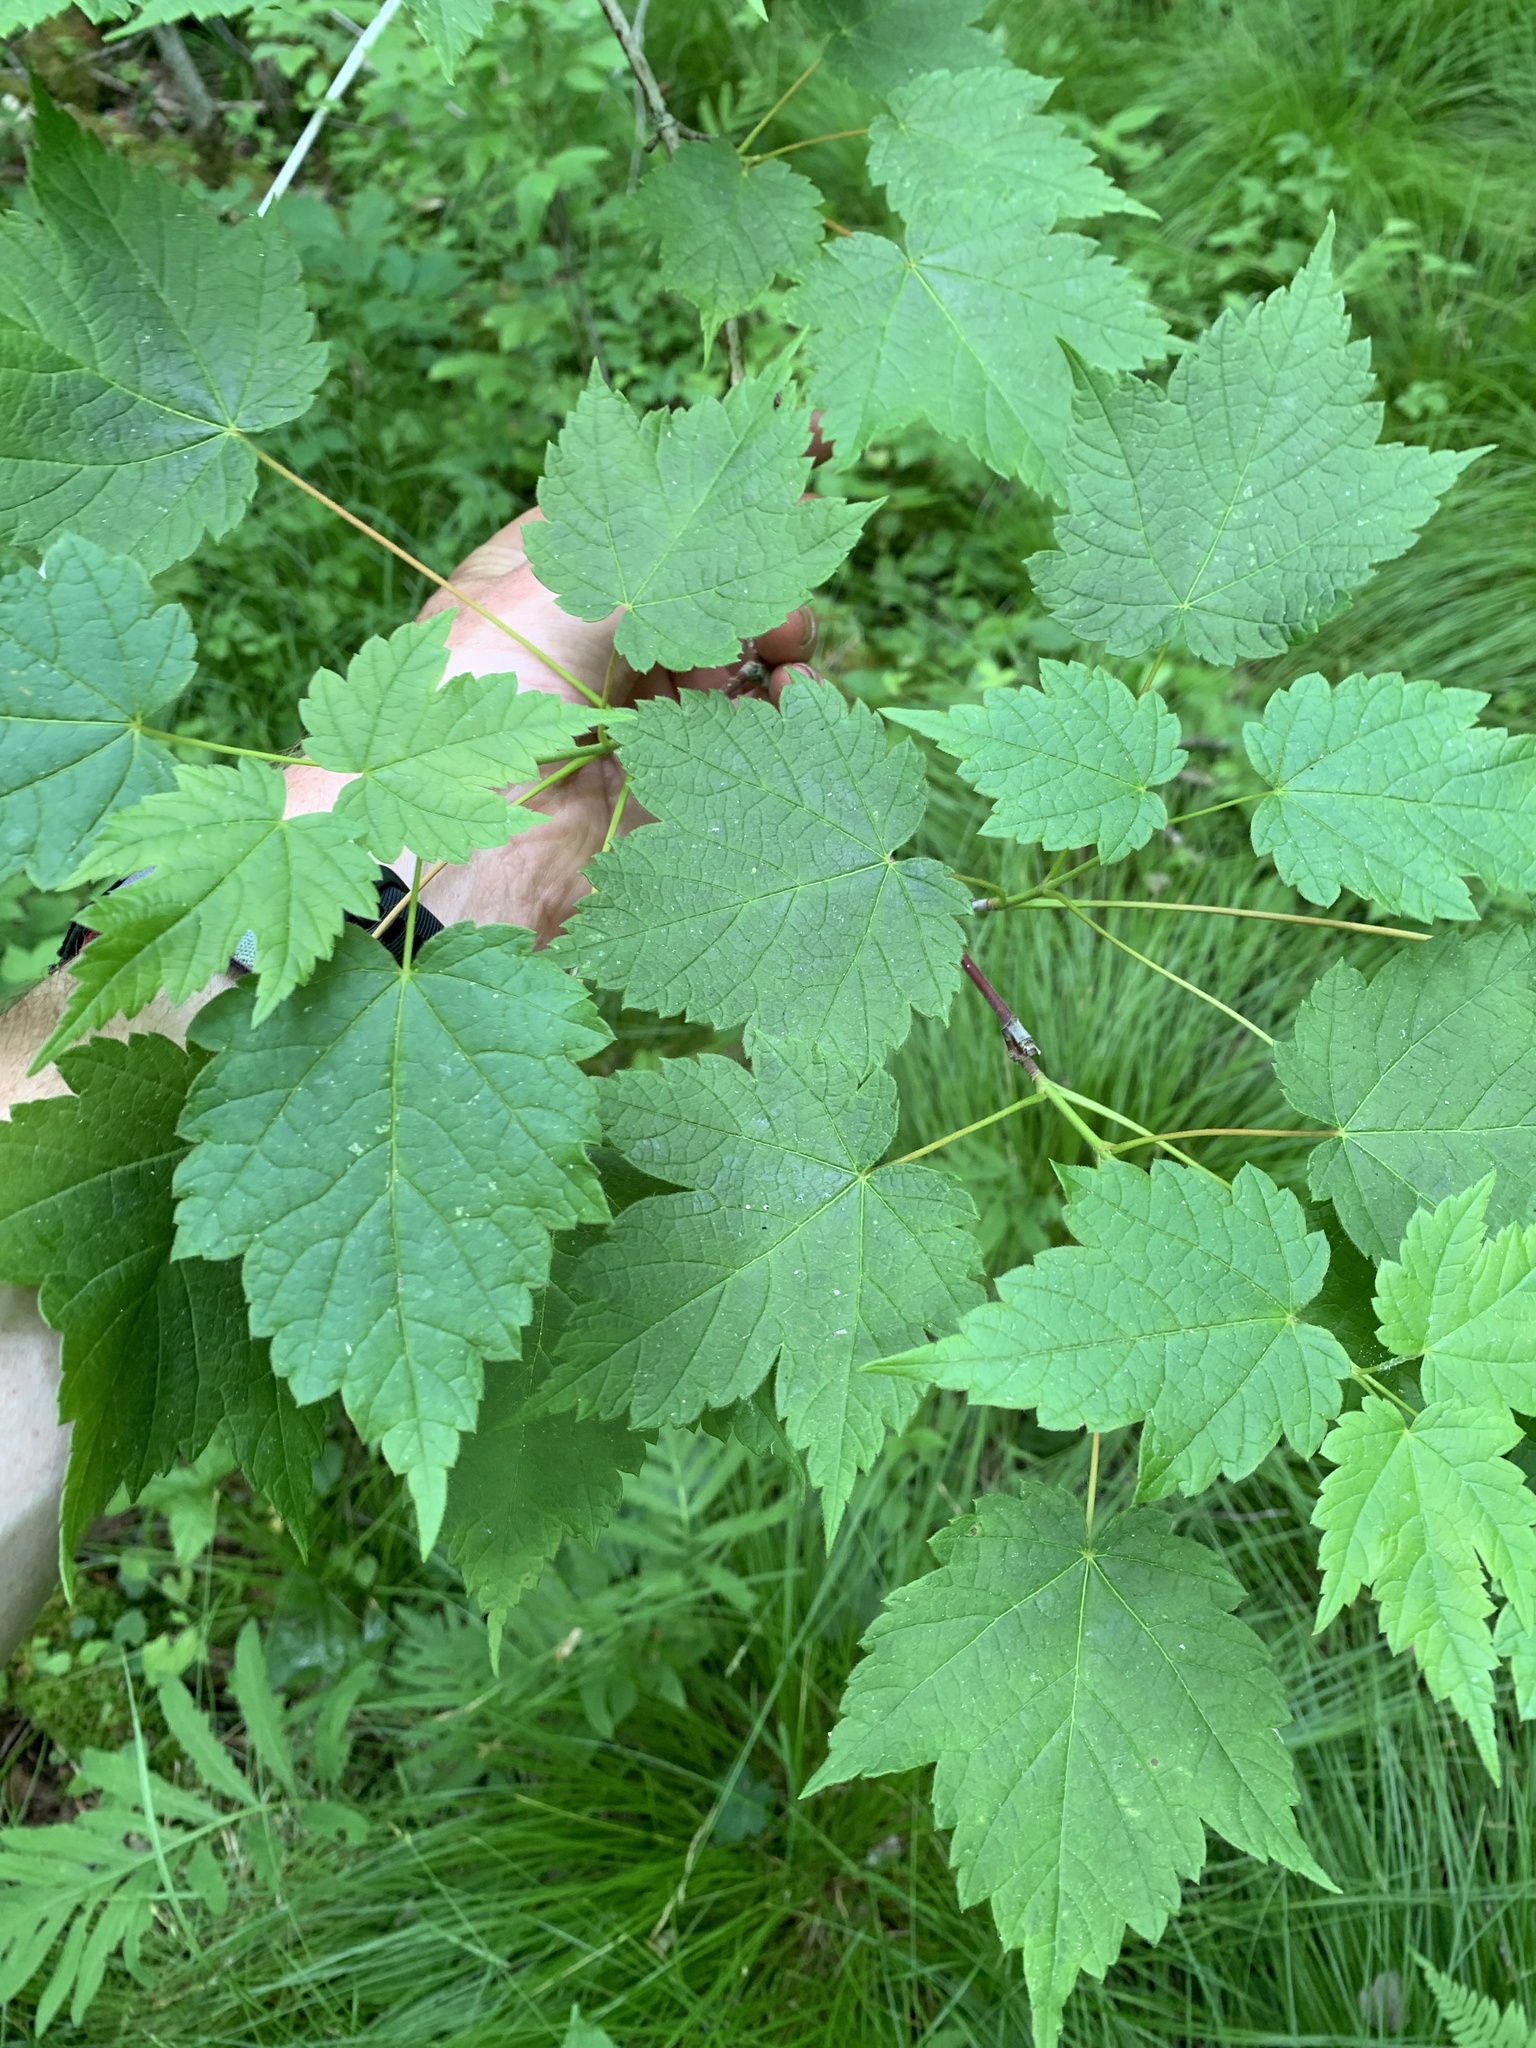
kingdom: Plantae
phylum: Tracheophyta
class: Magnoliopsida
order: Sapindales
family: Sapindaceae
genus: Acer
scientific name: Acer spicatum
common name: Mountain maple
